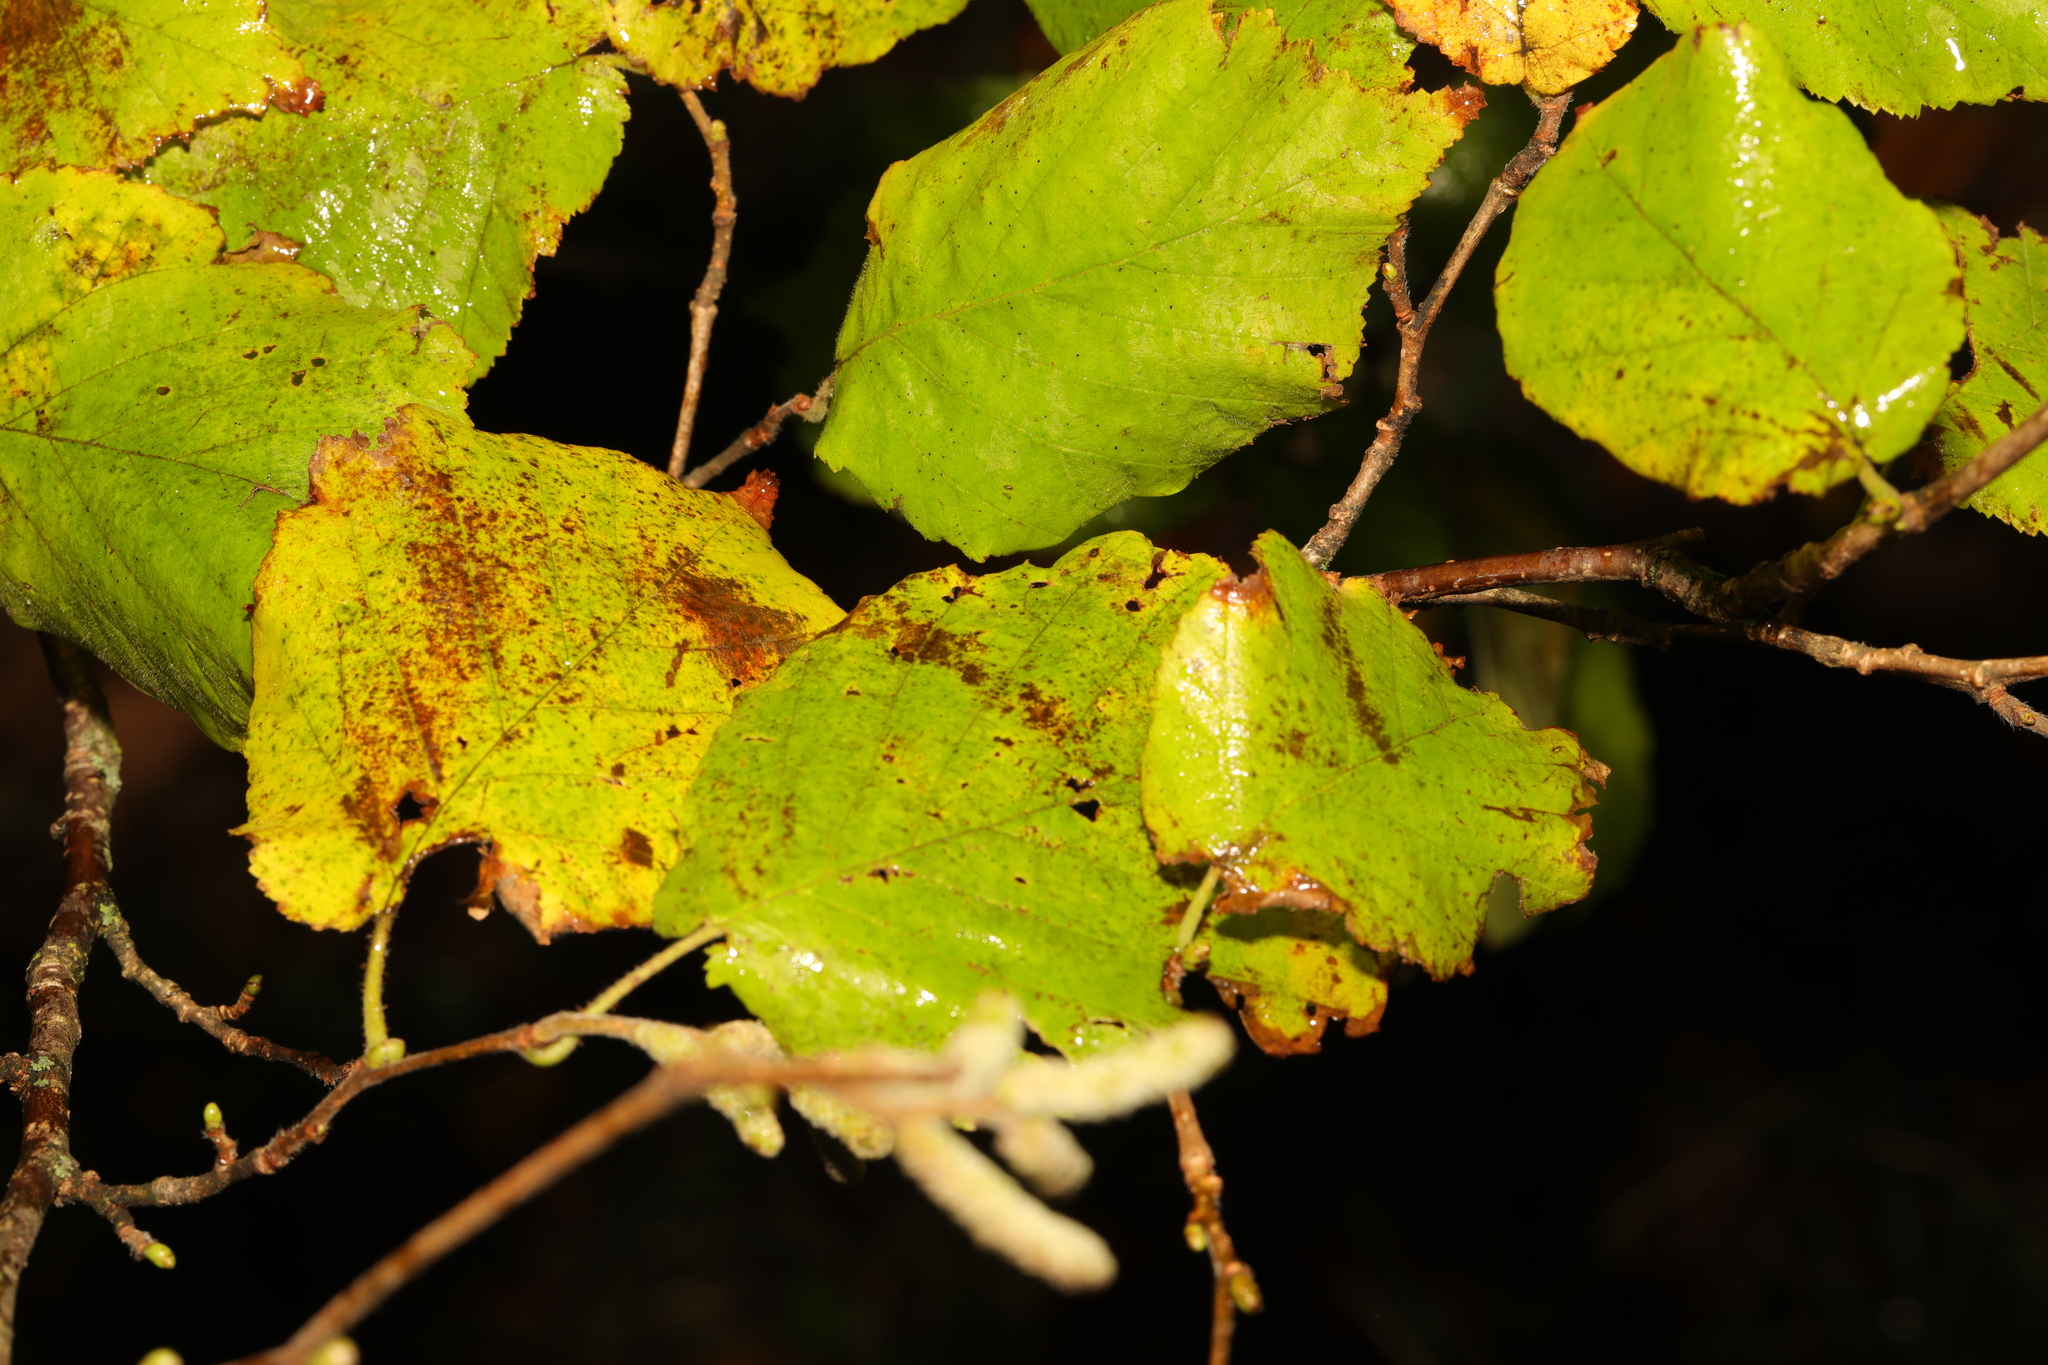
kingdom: Plantae
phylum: Tracheophyta
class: Magnoliopsida
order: Fagales
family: Betulaceae
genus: Corylus
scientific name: Corylus avellana
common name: European hazel
